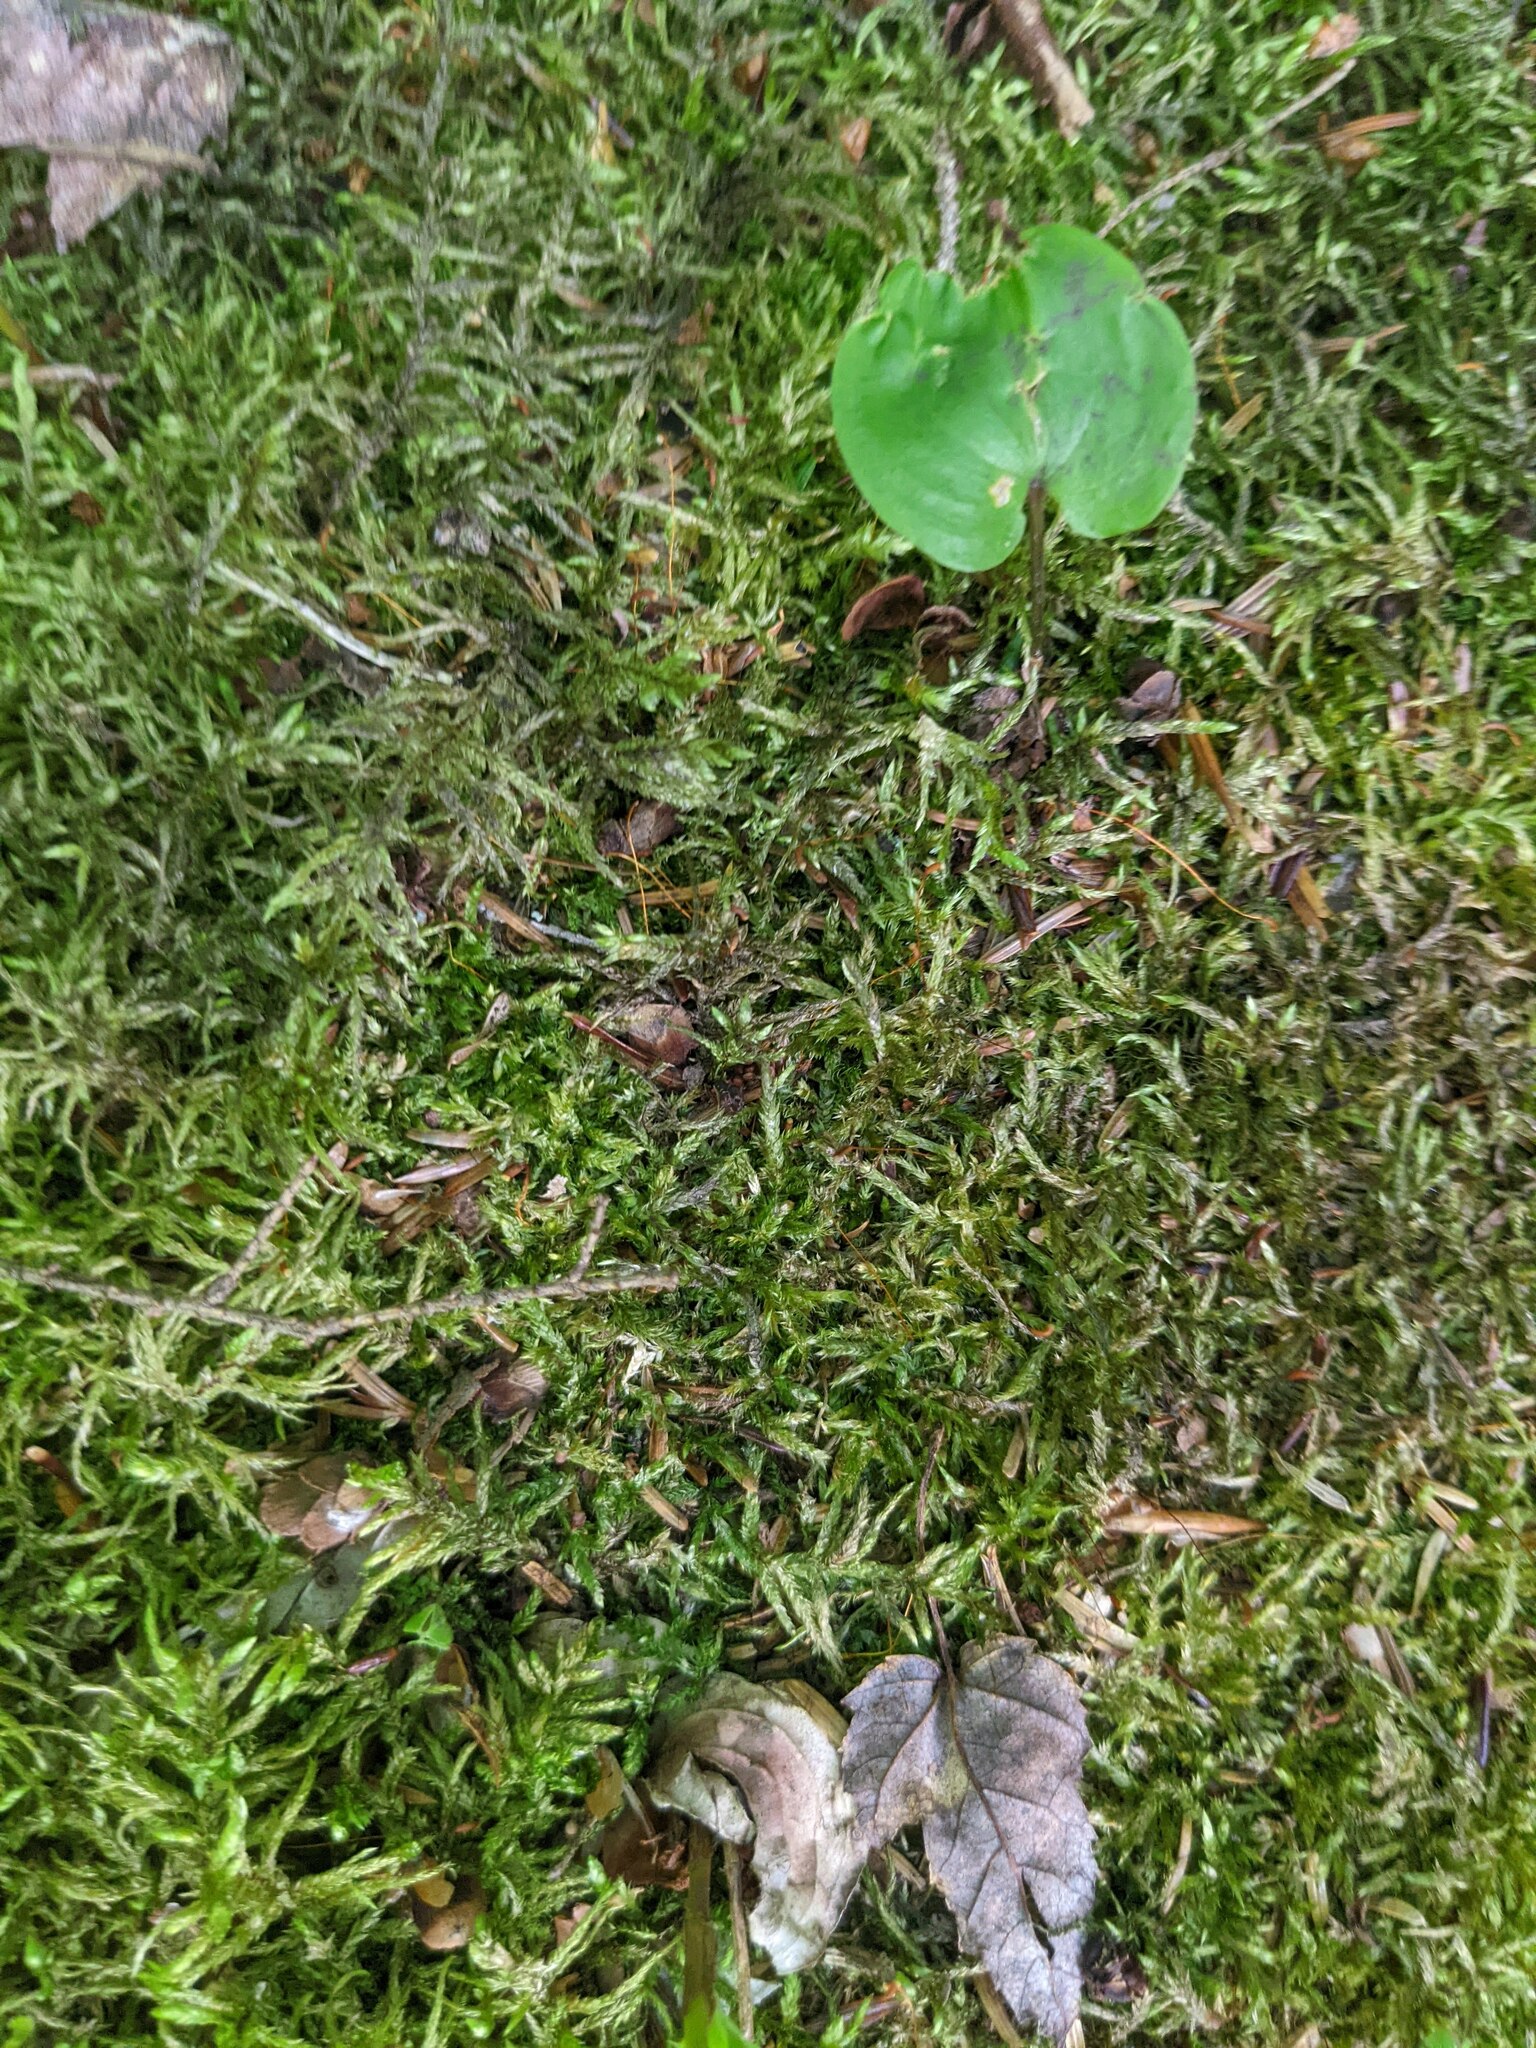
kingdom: Plantae
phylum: Tracheophyta
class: Liliopsida
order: Asparagales
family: Asparagaceae
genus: Maianthemum
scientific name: Maianthemum canadense
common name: False lily-of-the-valley
